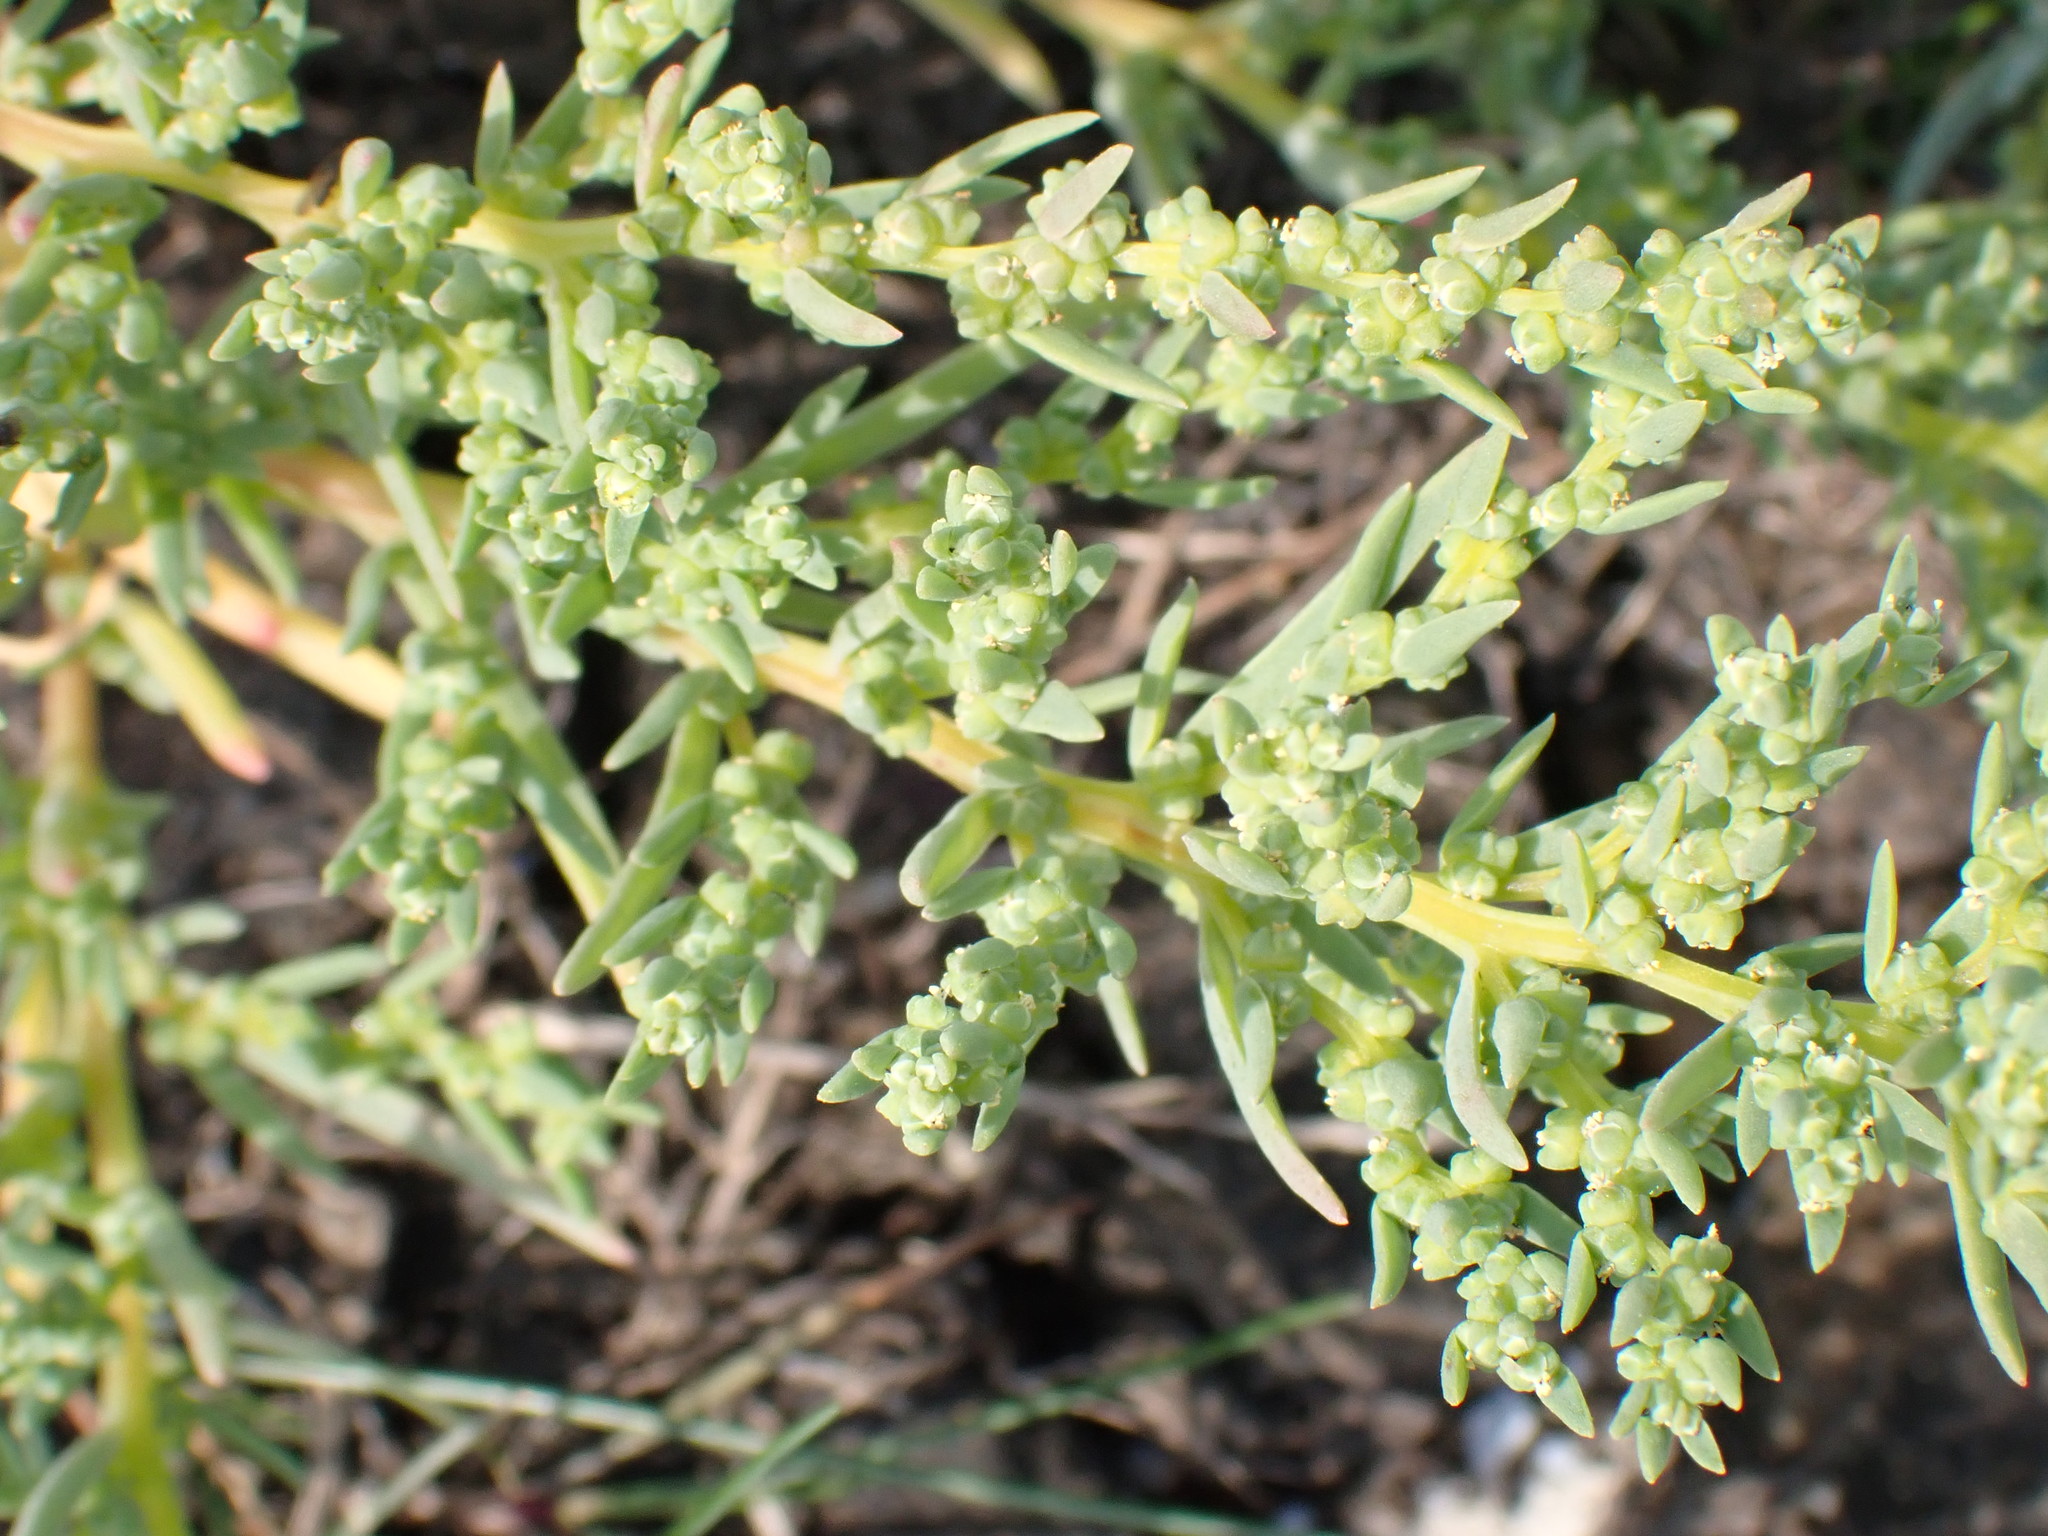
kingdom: Plantae
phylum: Tracheophyta
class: Magnoliopsida
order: Caryophyllales
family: Amaranthaceae
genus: Suaeda
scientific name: Suaeda maritima
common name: Annual sea-blite
